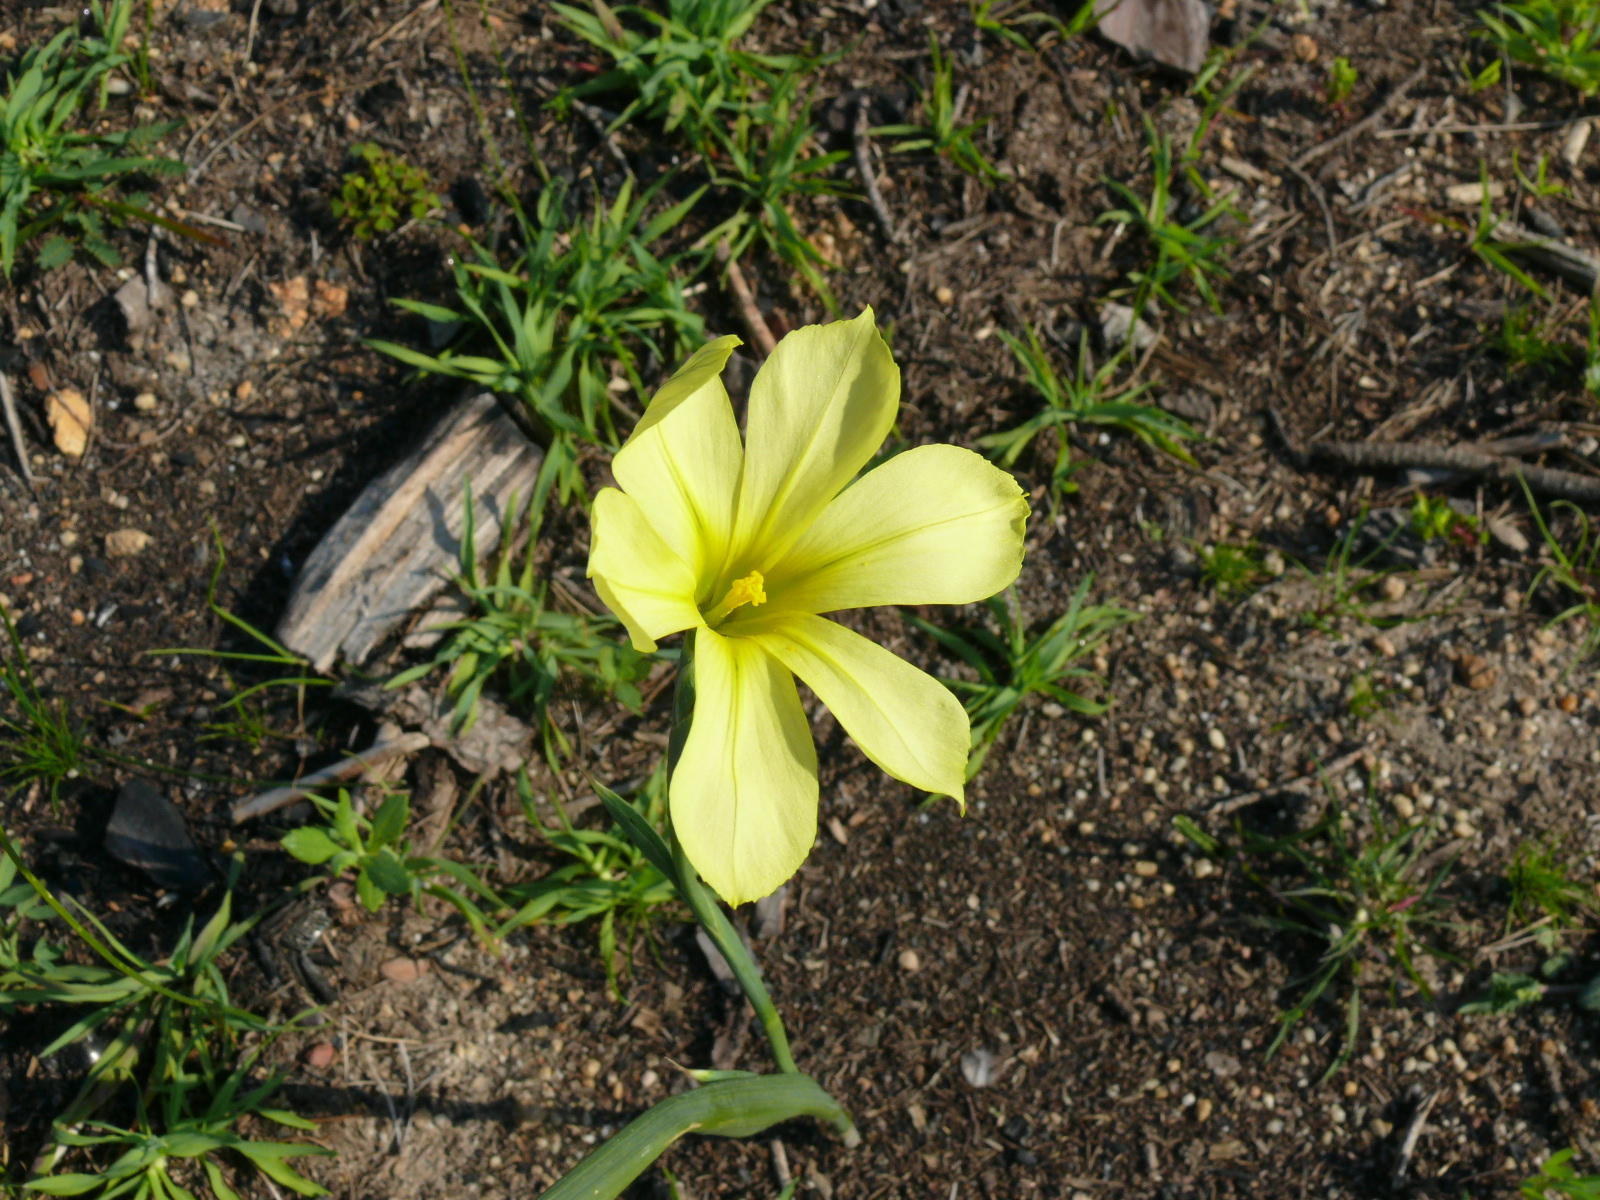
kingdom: Plantae
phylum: Tracheophyta
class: Liliopsida
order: Asparagales
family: Iridaceae
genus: Moraea
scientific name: Moraea collina
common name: Cape-tulip
